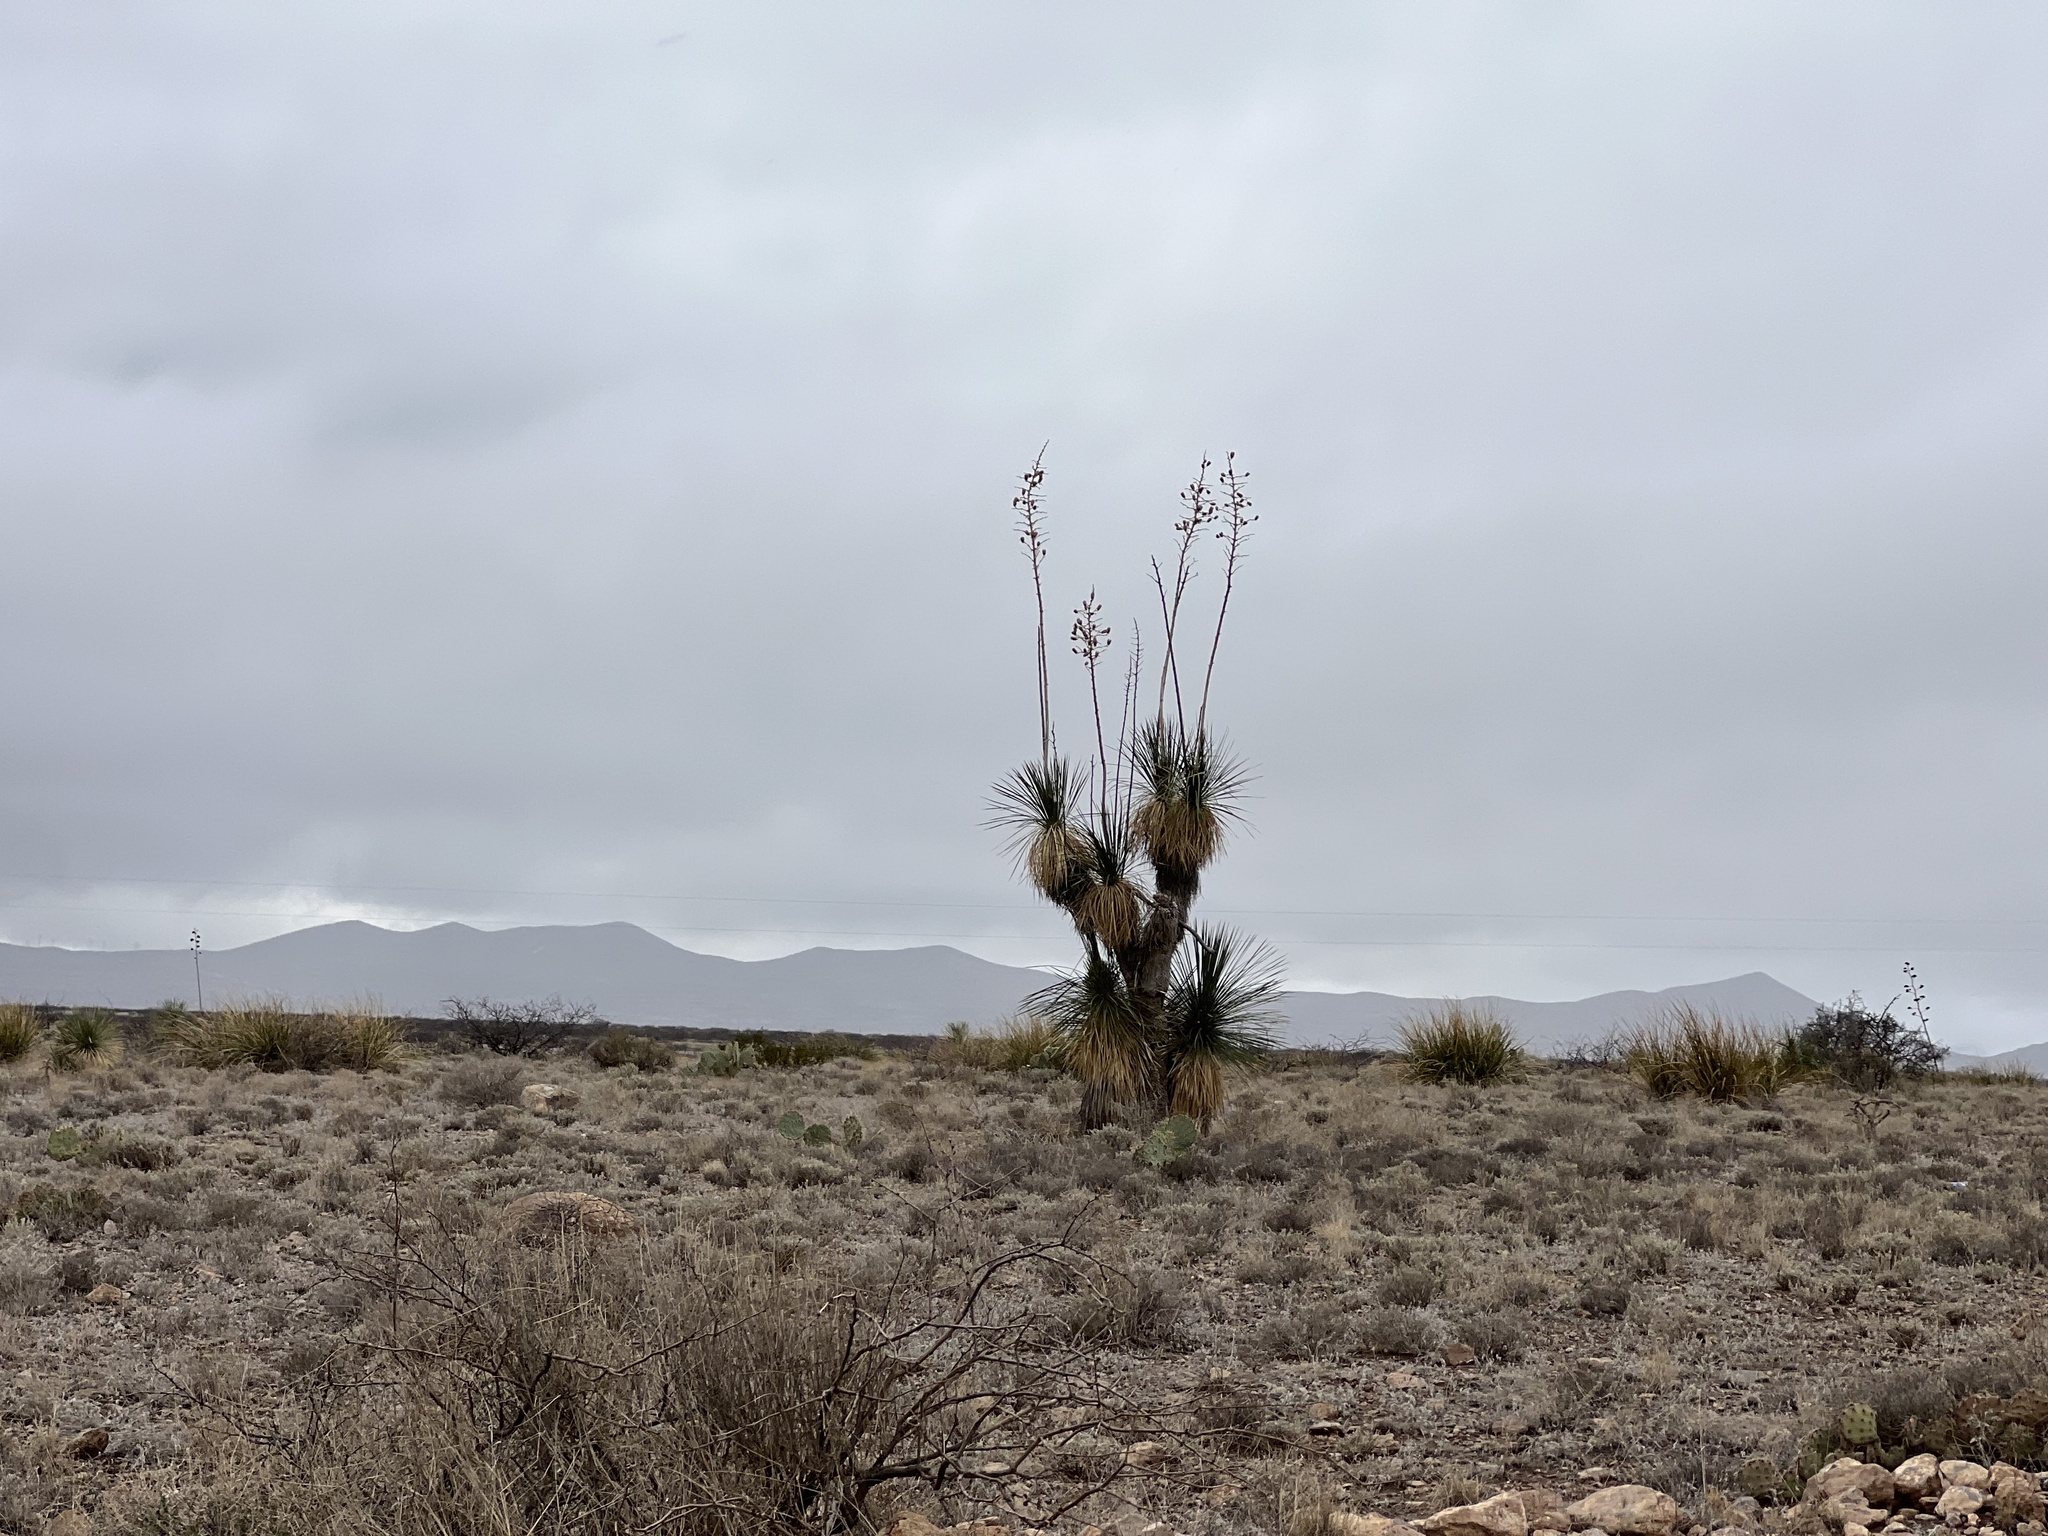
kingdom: Plantae
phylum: Tracheophyta
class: Liliopsida
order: Asparagales
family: Asparagaceae
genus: Yucca
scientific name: Yucca elata
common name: Palmella
